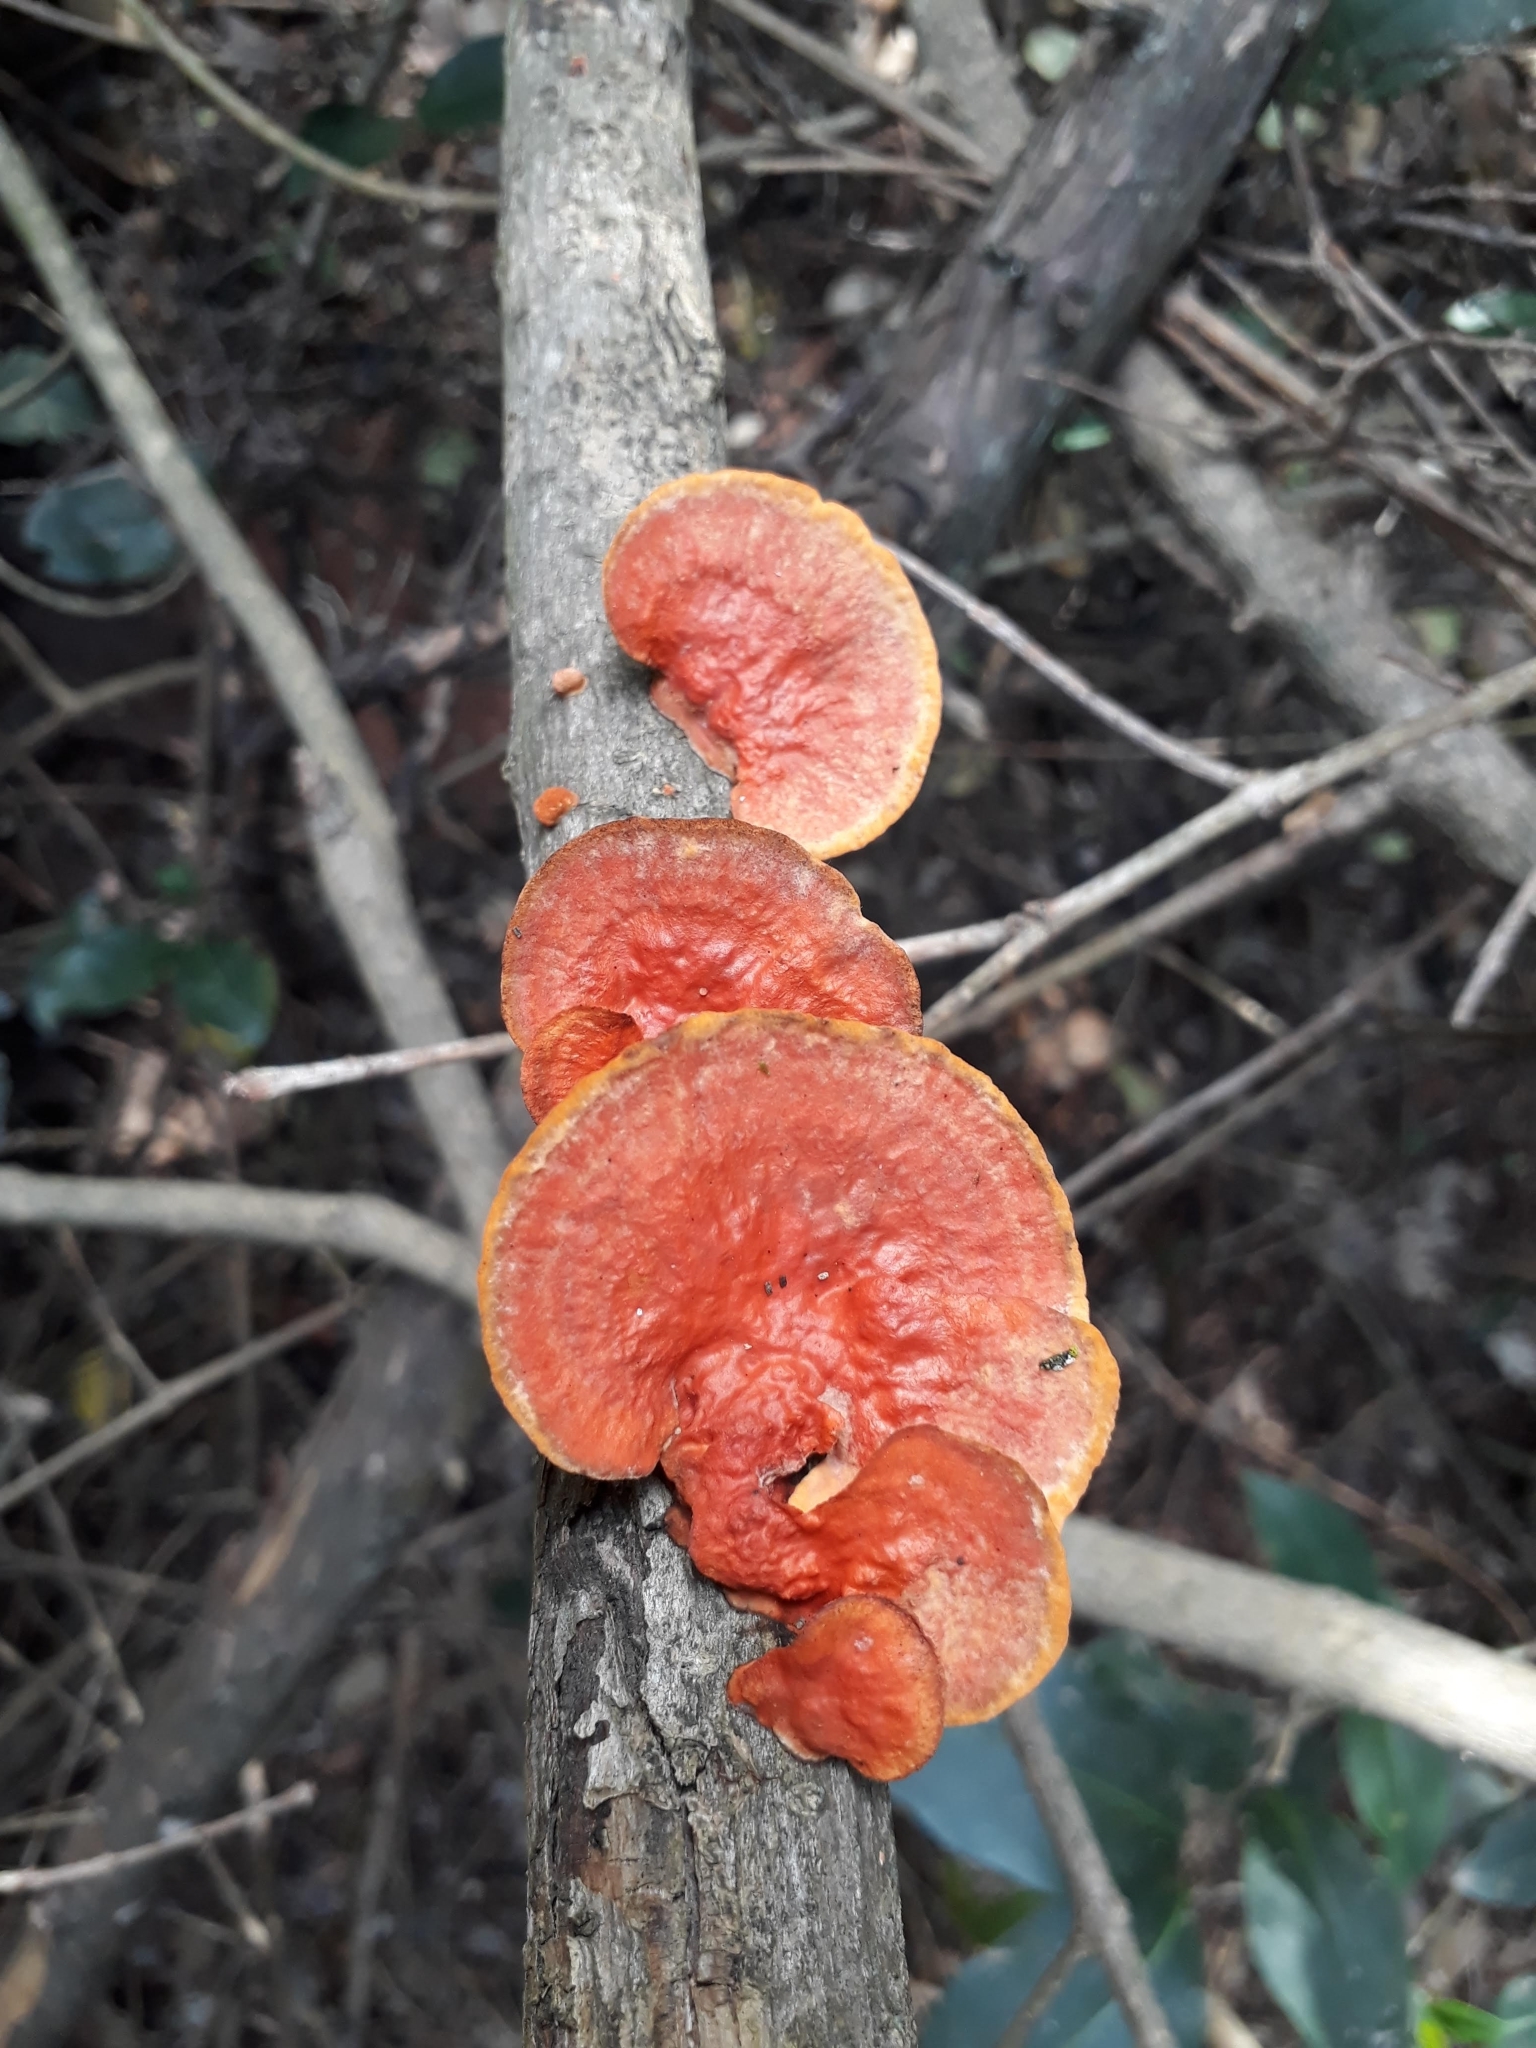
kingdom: Fungi
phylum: Basidiomycota
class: Agaricomycetes
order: Polyporales
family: Polyporaceae
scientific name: Polyporaceae
